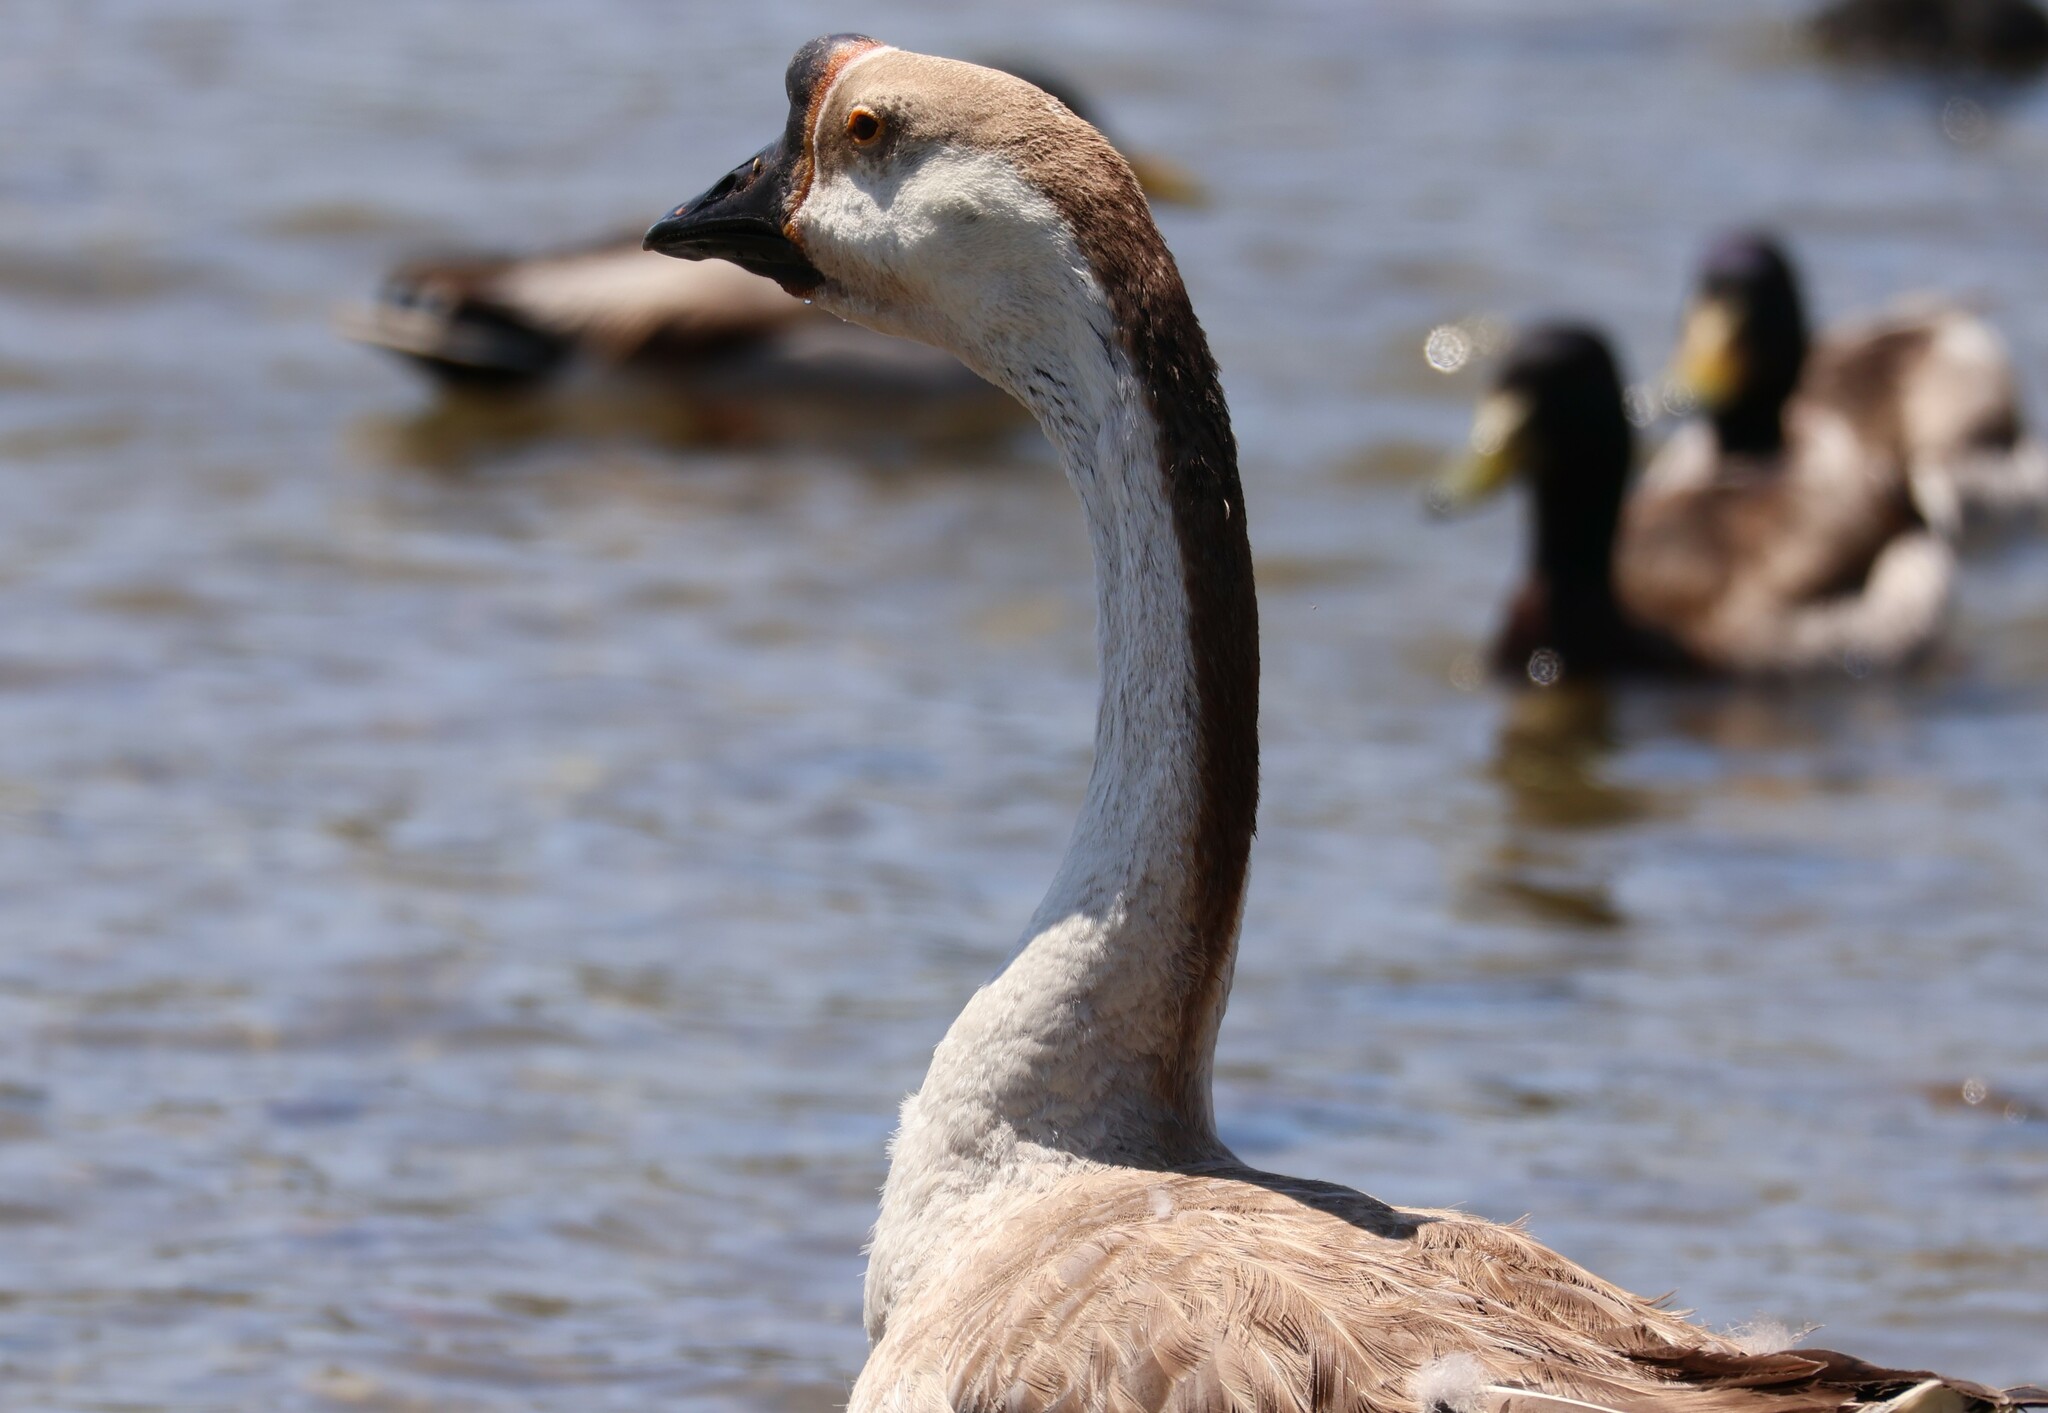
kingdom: Animalia
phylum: Chordata
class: Aves
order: Anseriformes
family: Anatidae
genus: Anser
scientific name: Anser cygnoides
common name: Swan goose
